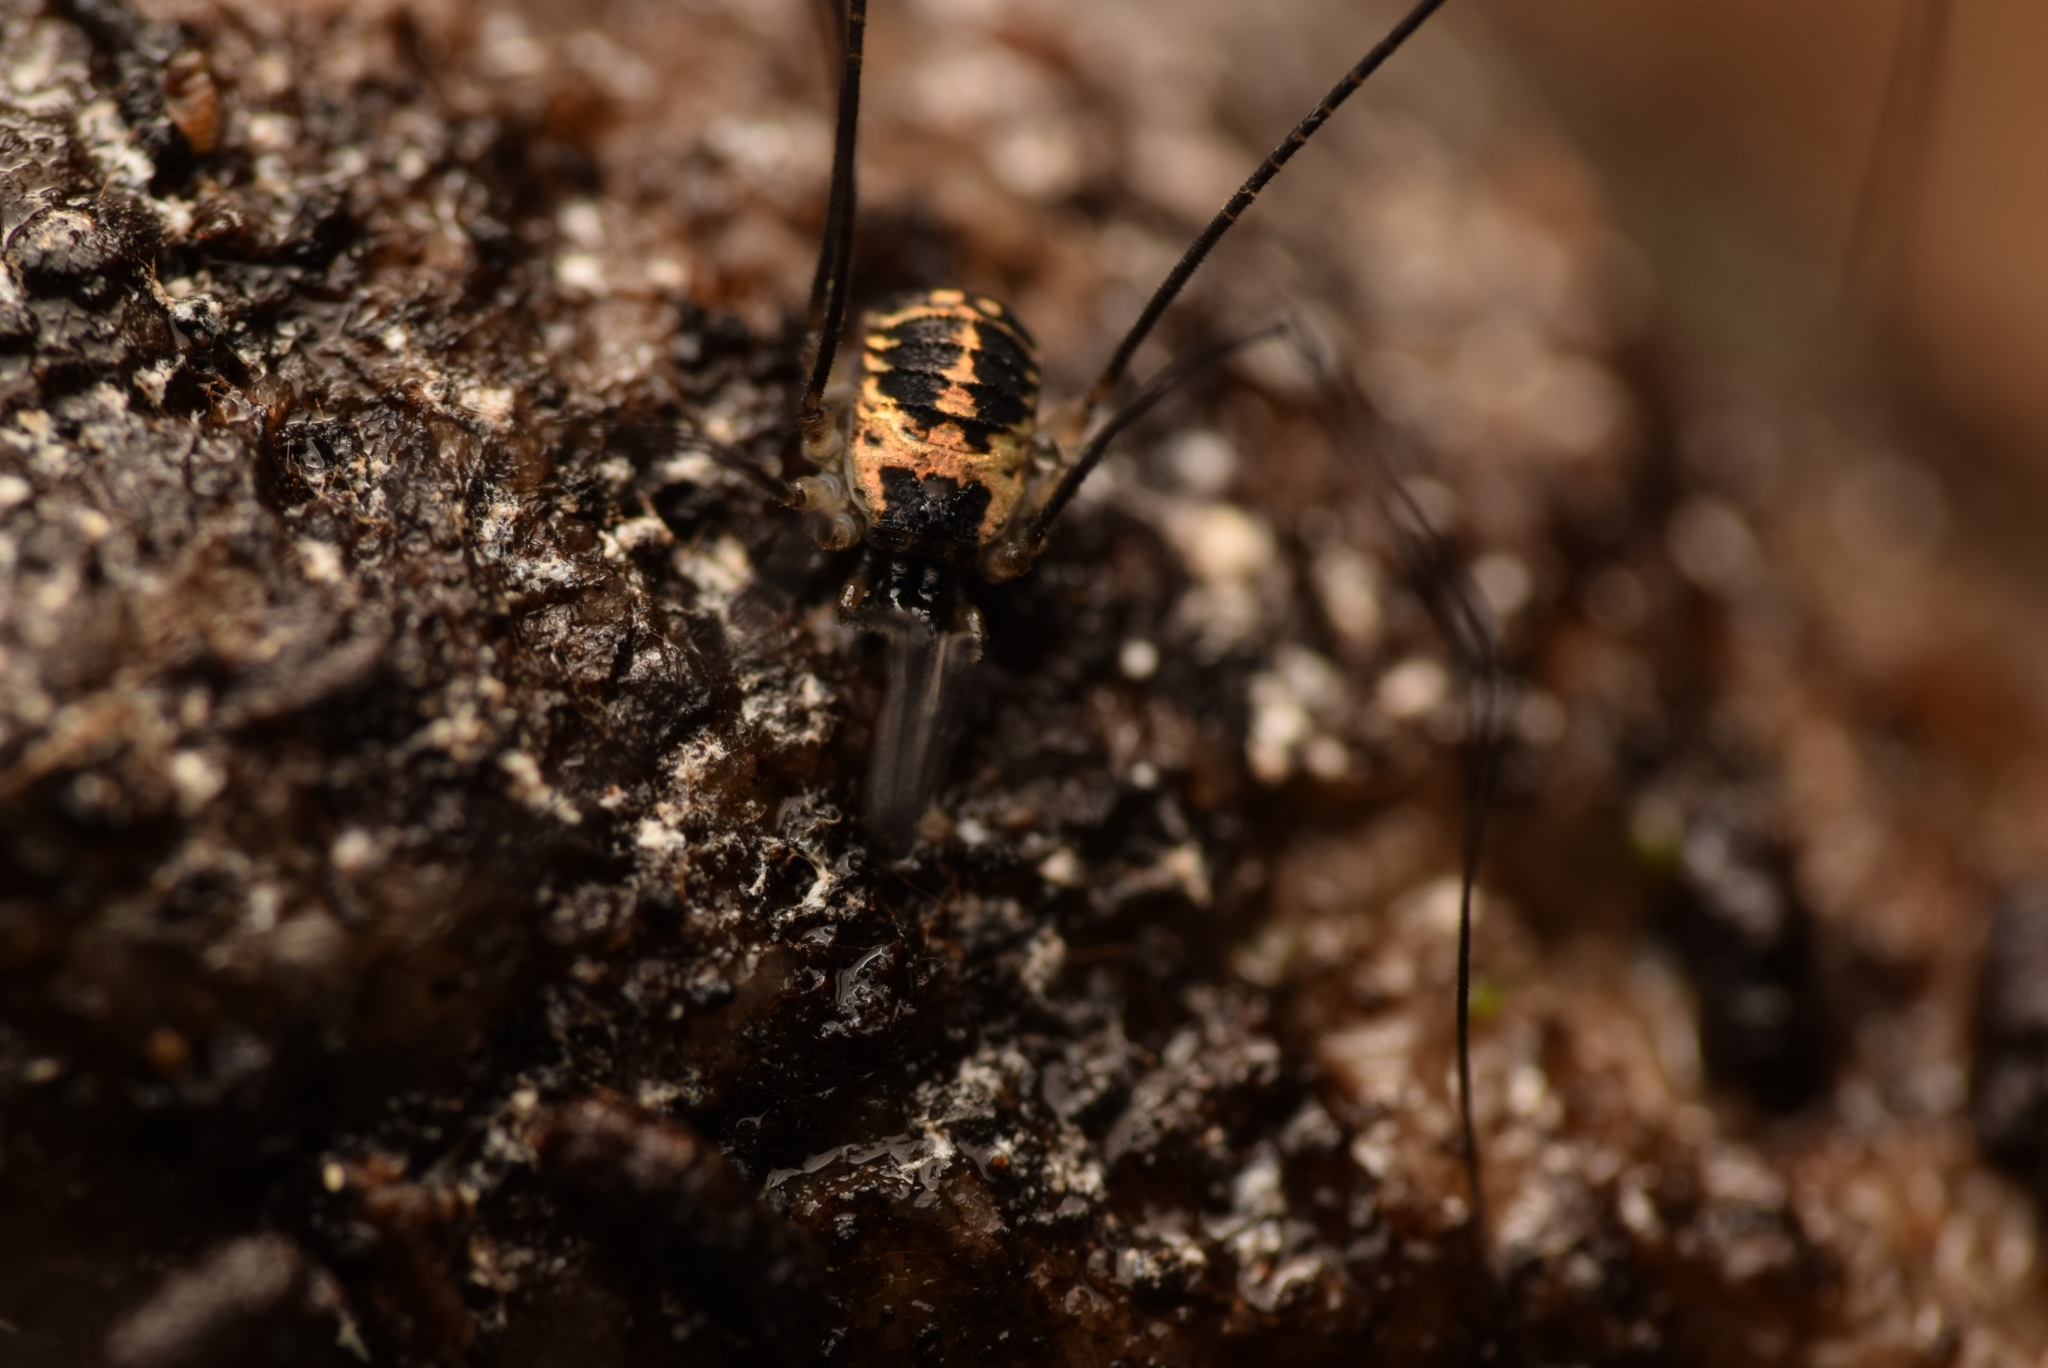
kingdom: Animalia
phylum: Arthropoda
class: Arachnida
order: Opiliones
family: Nemastomatidae
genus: Mitostoma
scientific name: Mitostoma pyrenaeum
